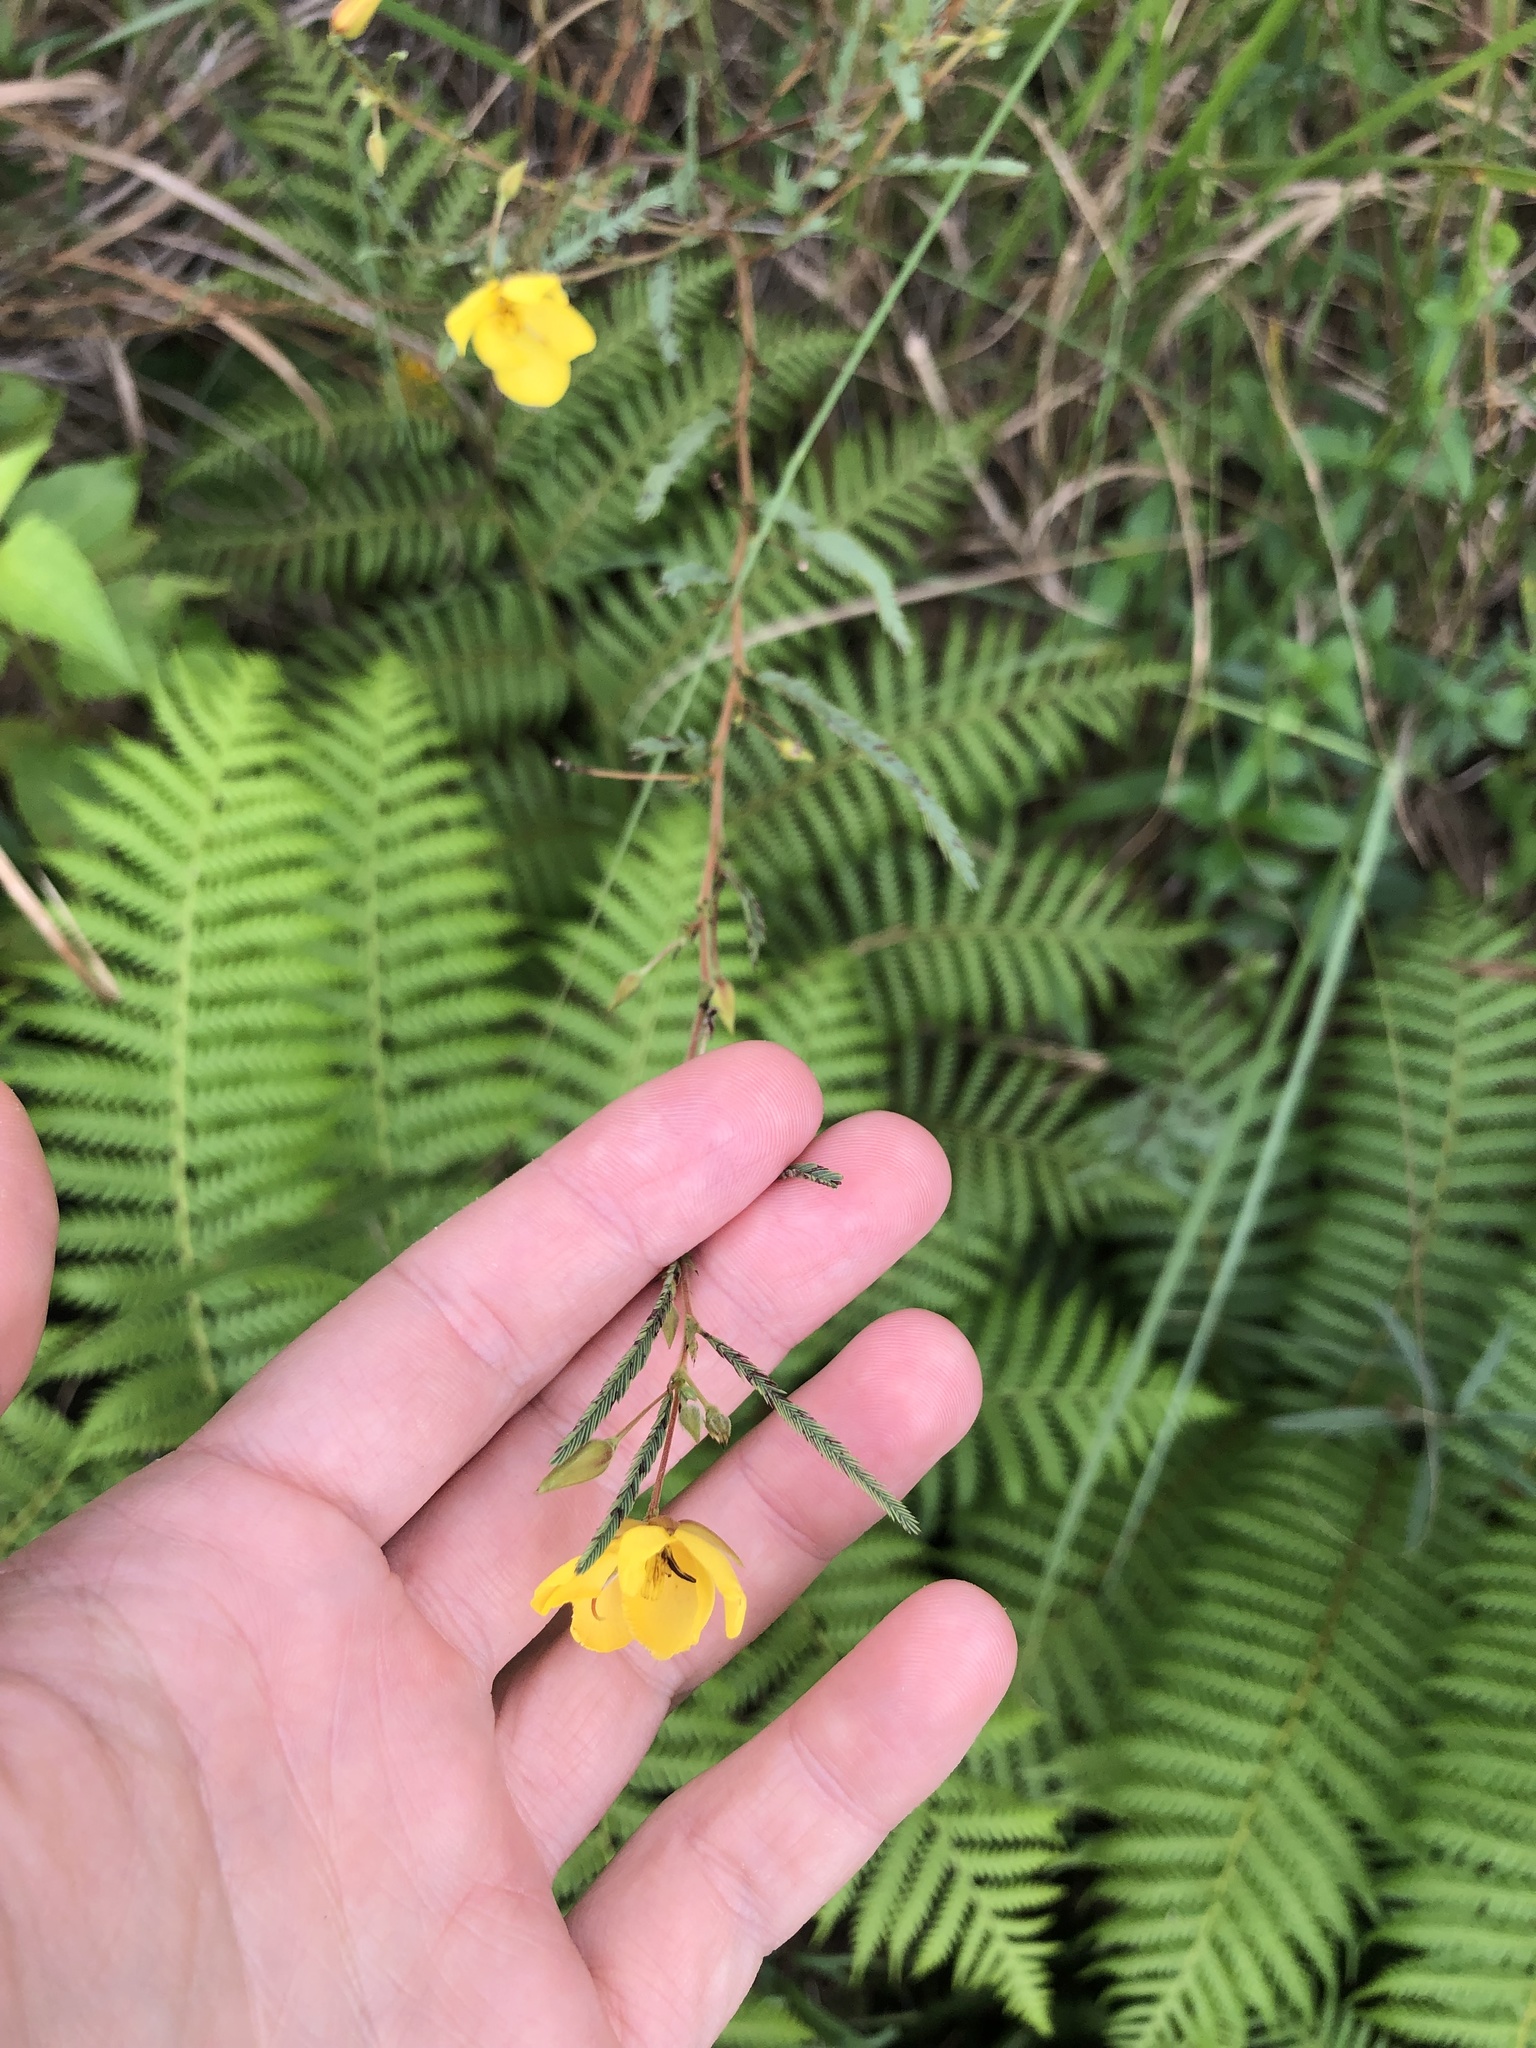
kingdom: Plantae
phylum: Tracheophyta
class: Magnoliopsida
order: Fabales
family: Fabaceae
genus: Chamaecrista
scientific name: Chamaecrista plumosa
